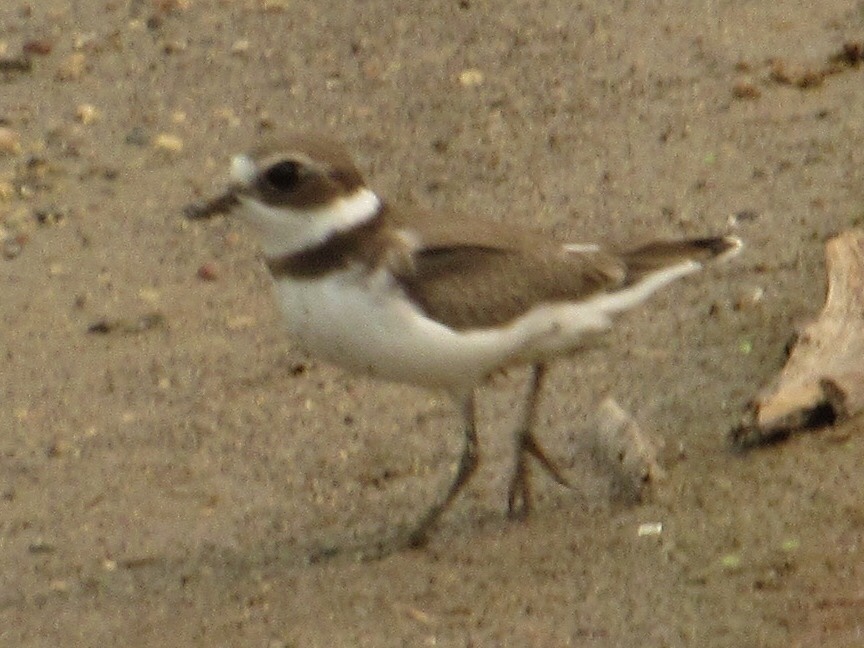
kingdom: Animalia
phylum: Chordata
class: Aves
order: Charadriiformes
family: Charadriidae
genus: Charadrius
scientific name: Charadrius semipalmatus
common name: Semipalmated plover
